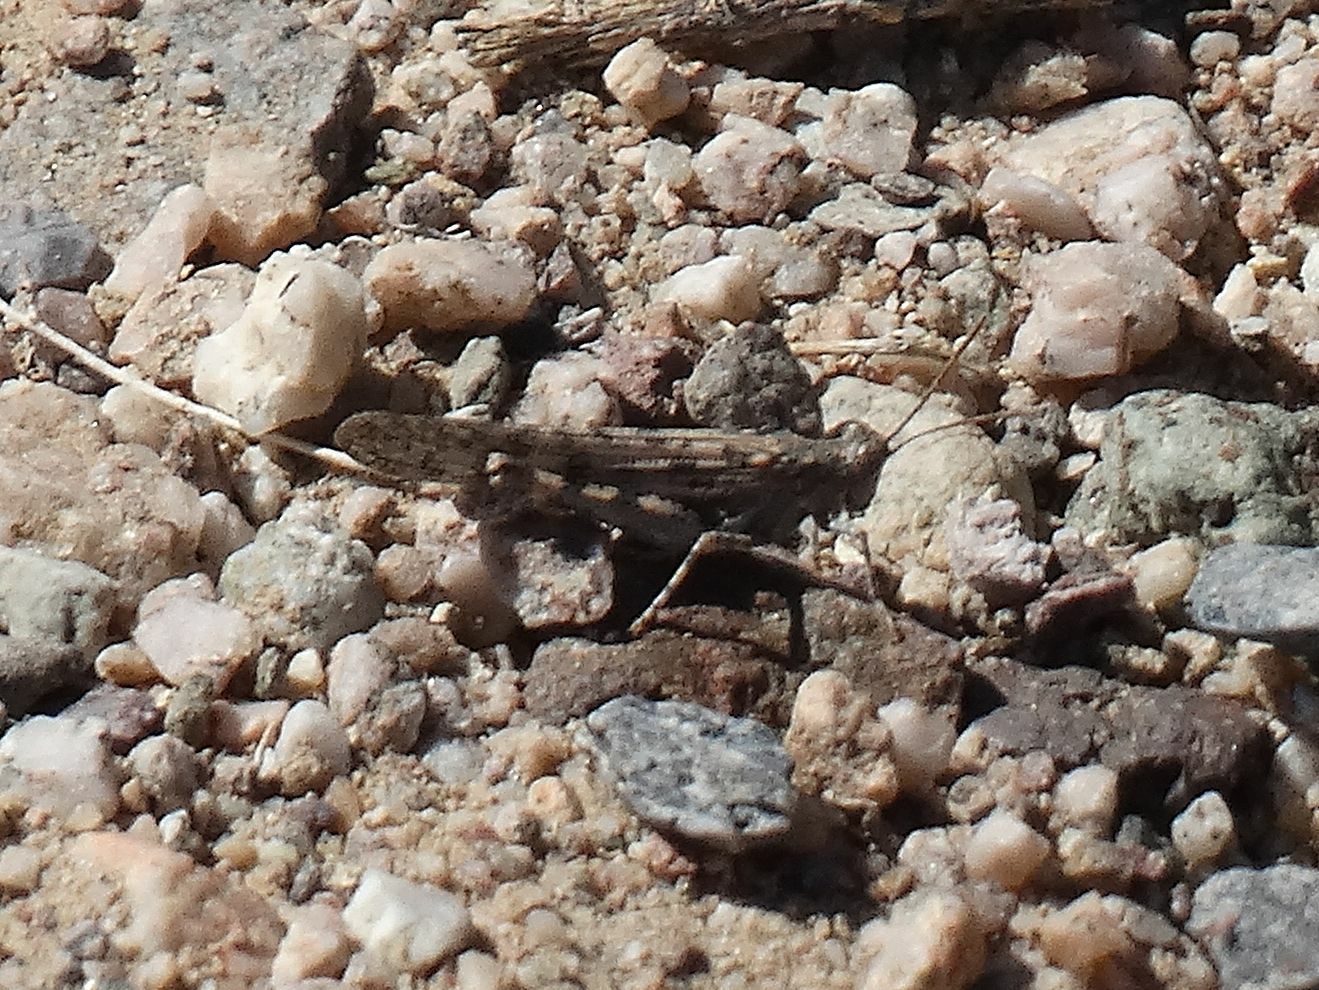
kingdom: Animalia
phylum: Arthropoda
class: Insecta
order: Orthoptera
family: Acrididae
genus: Anconia
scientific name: Anconia integra
